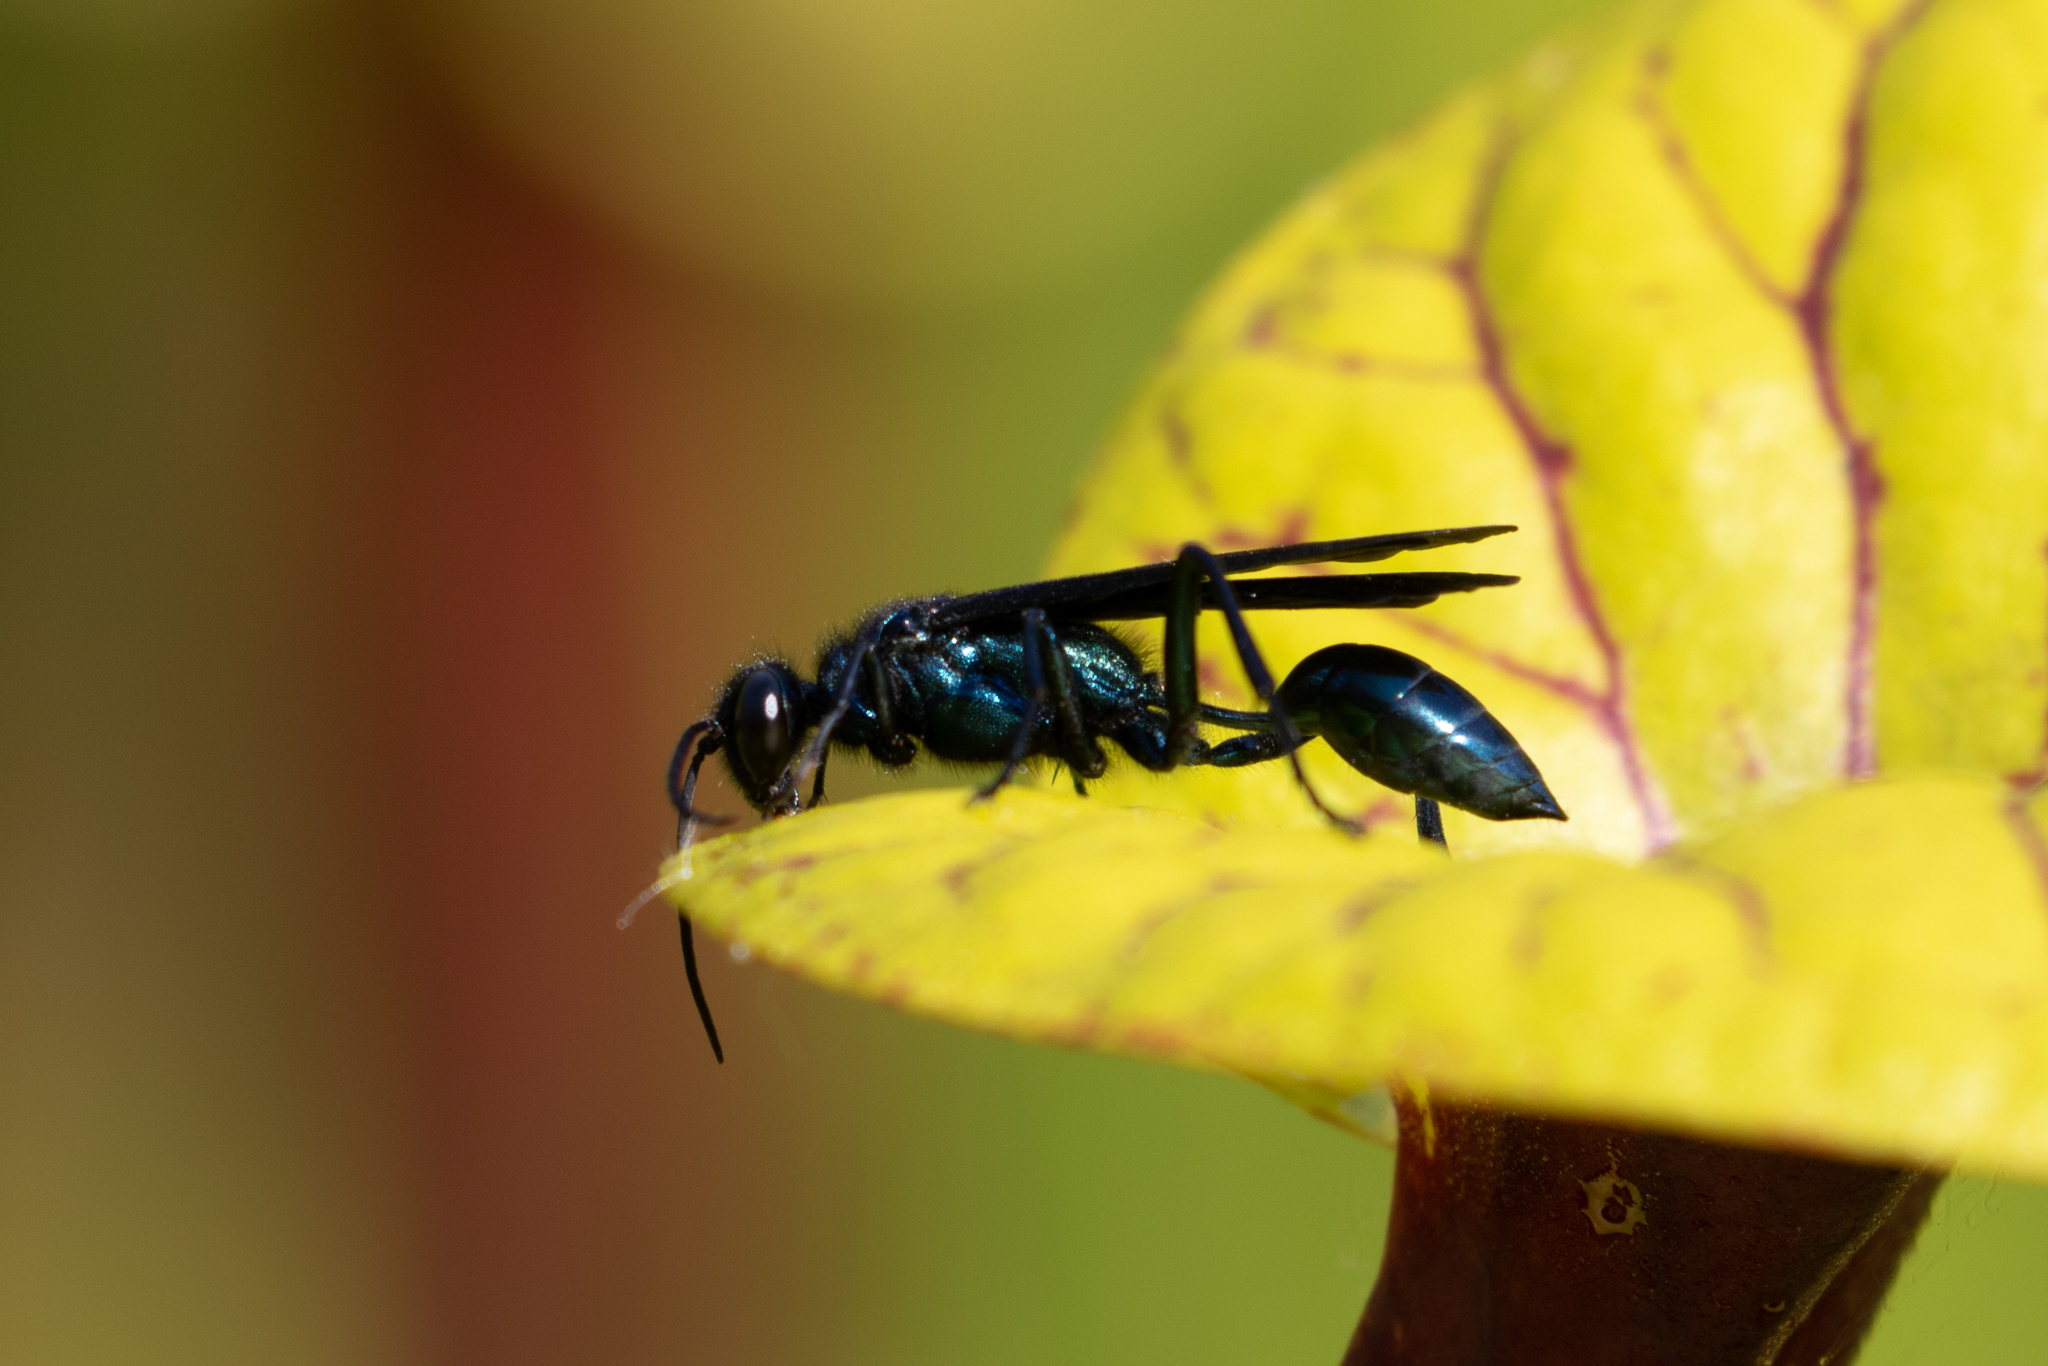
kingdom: Animalia
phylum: Arthropoda
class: Insecta
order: Hymenoptera
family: Sphecidae
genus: Chalybion
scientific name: Chalybion californicum
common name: Mud dauber
